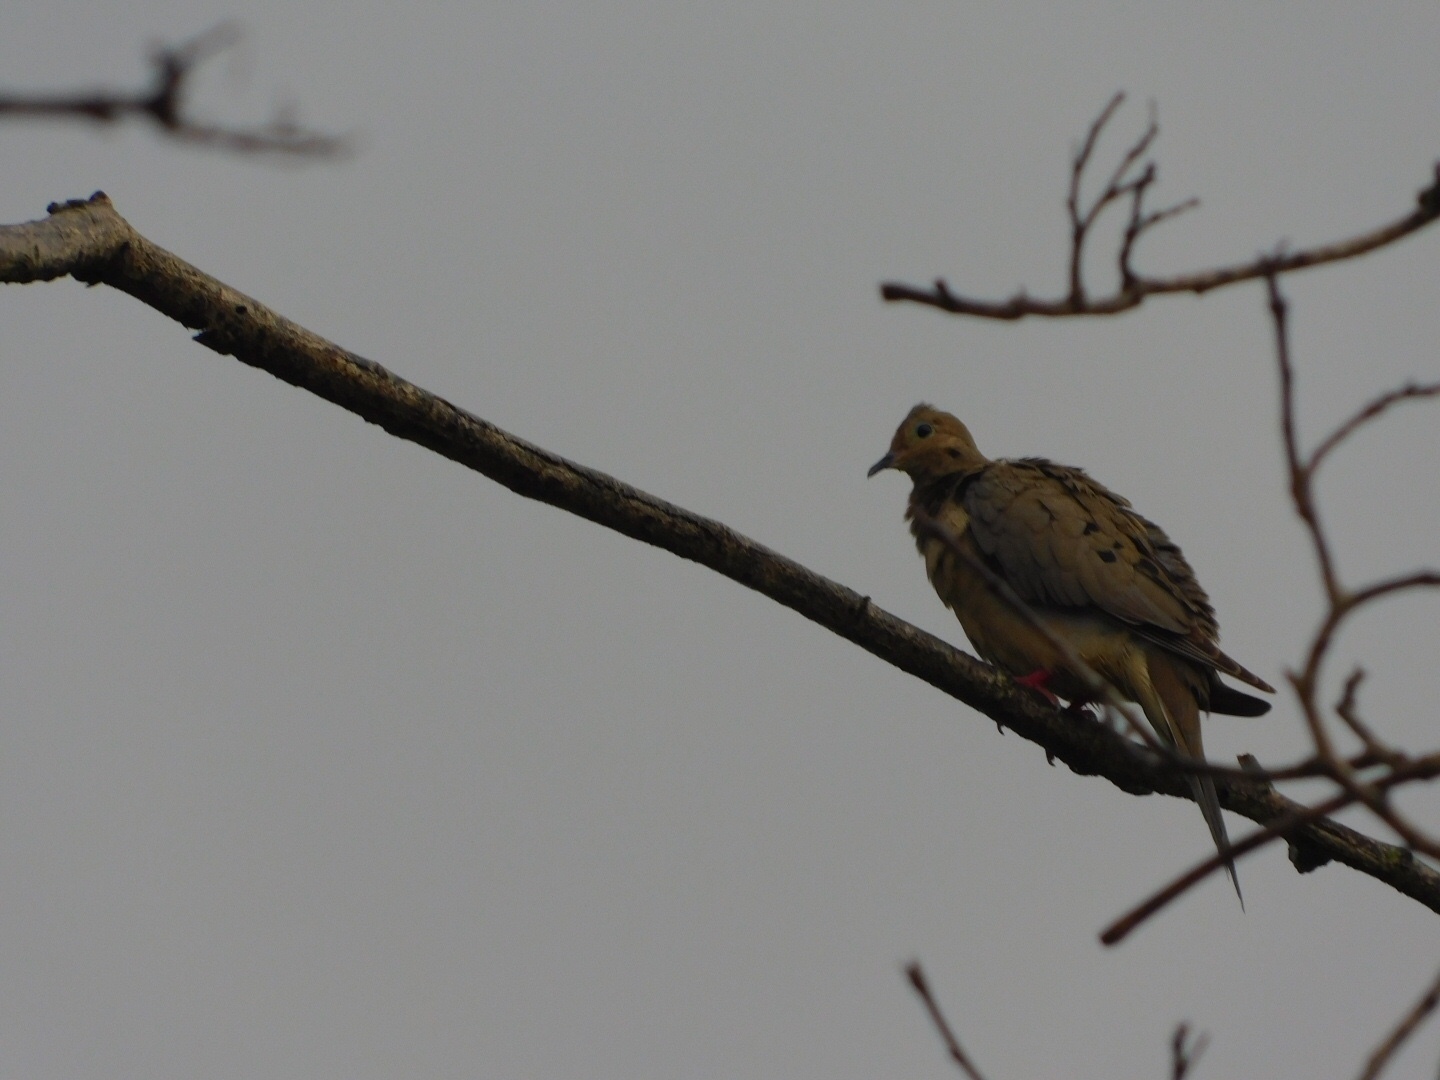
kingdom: Animalia
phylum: Chordata
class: Aves
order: Columbiformes
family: Columbidae
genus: Zenaida
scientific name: Zenaida macroura
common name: Mourning dove
